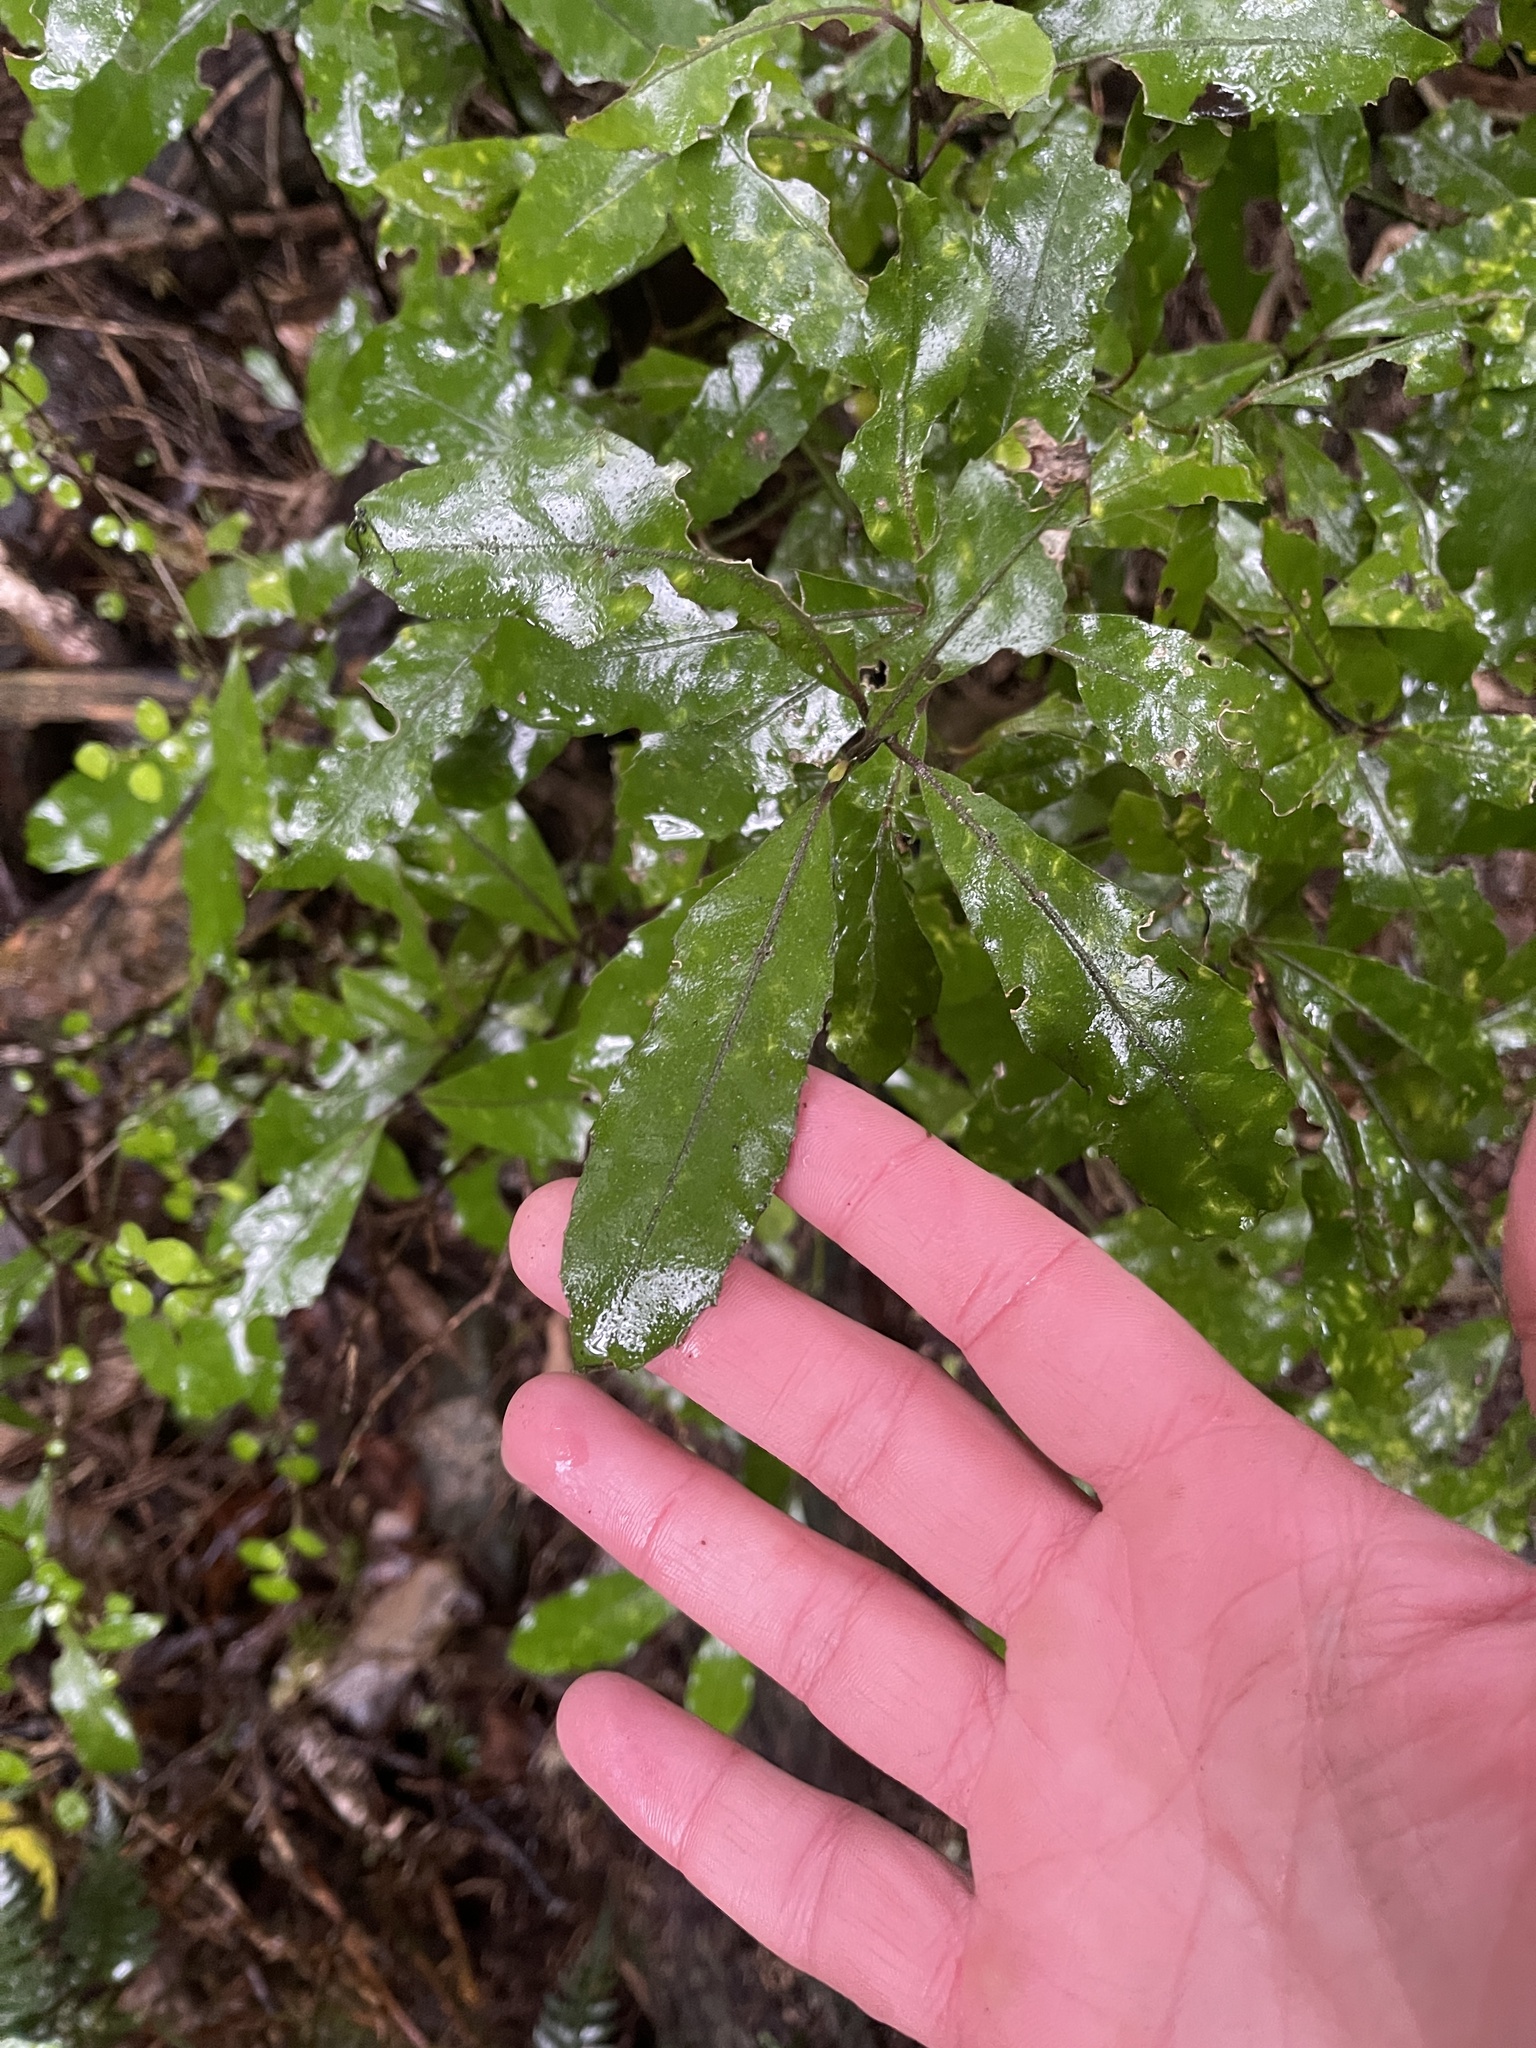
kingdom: Plantae
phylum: Tracheophyta
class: Magnoliopsida
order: Laurales
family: Monimiaceae
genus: Hedycarya
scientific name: Hedycarya arborea
